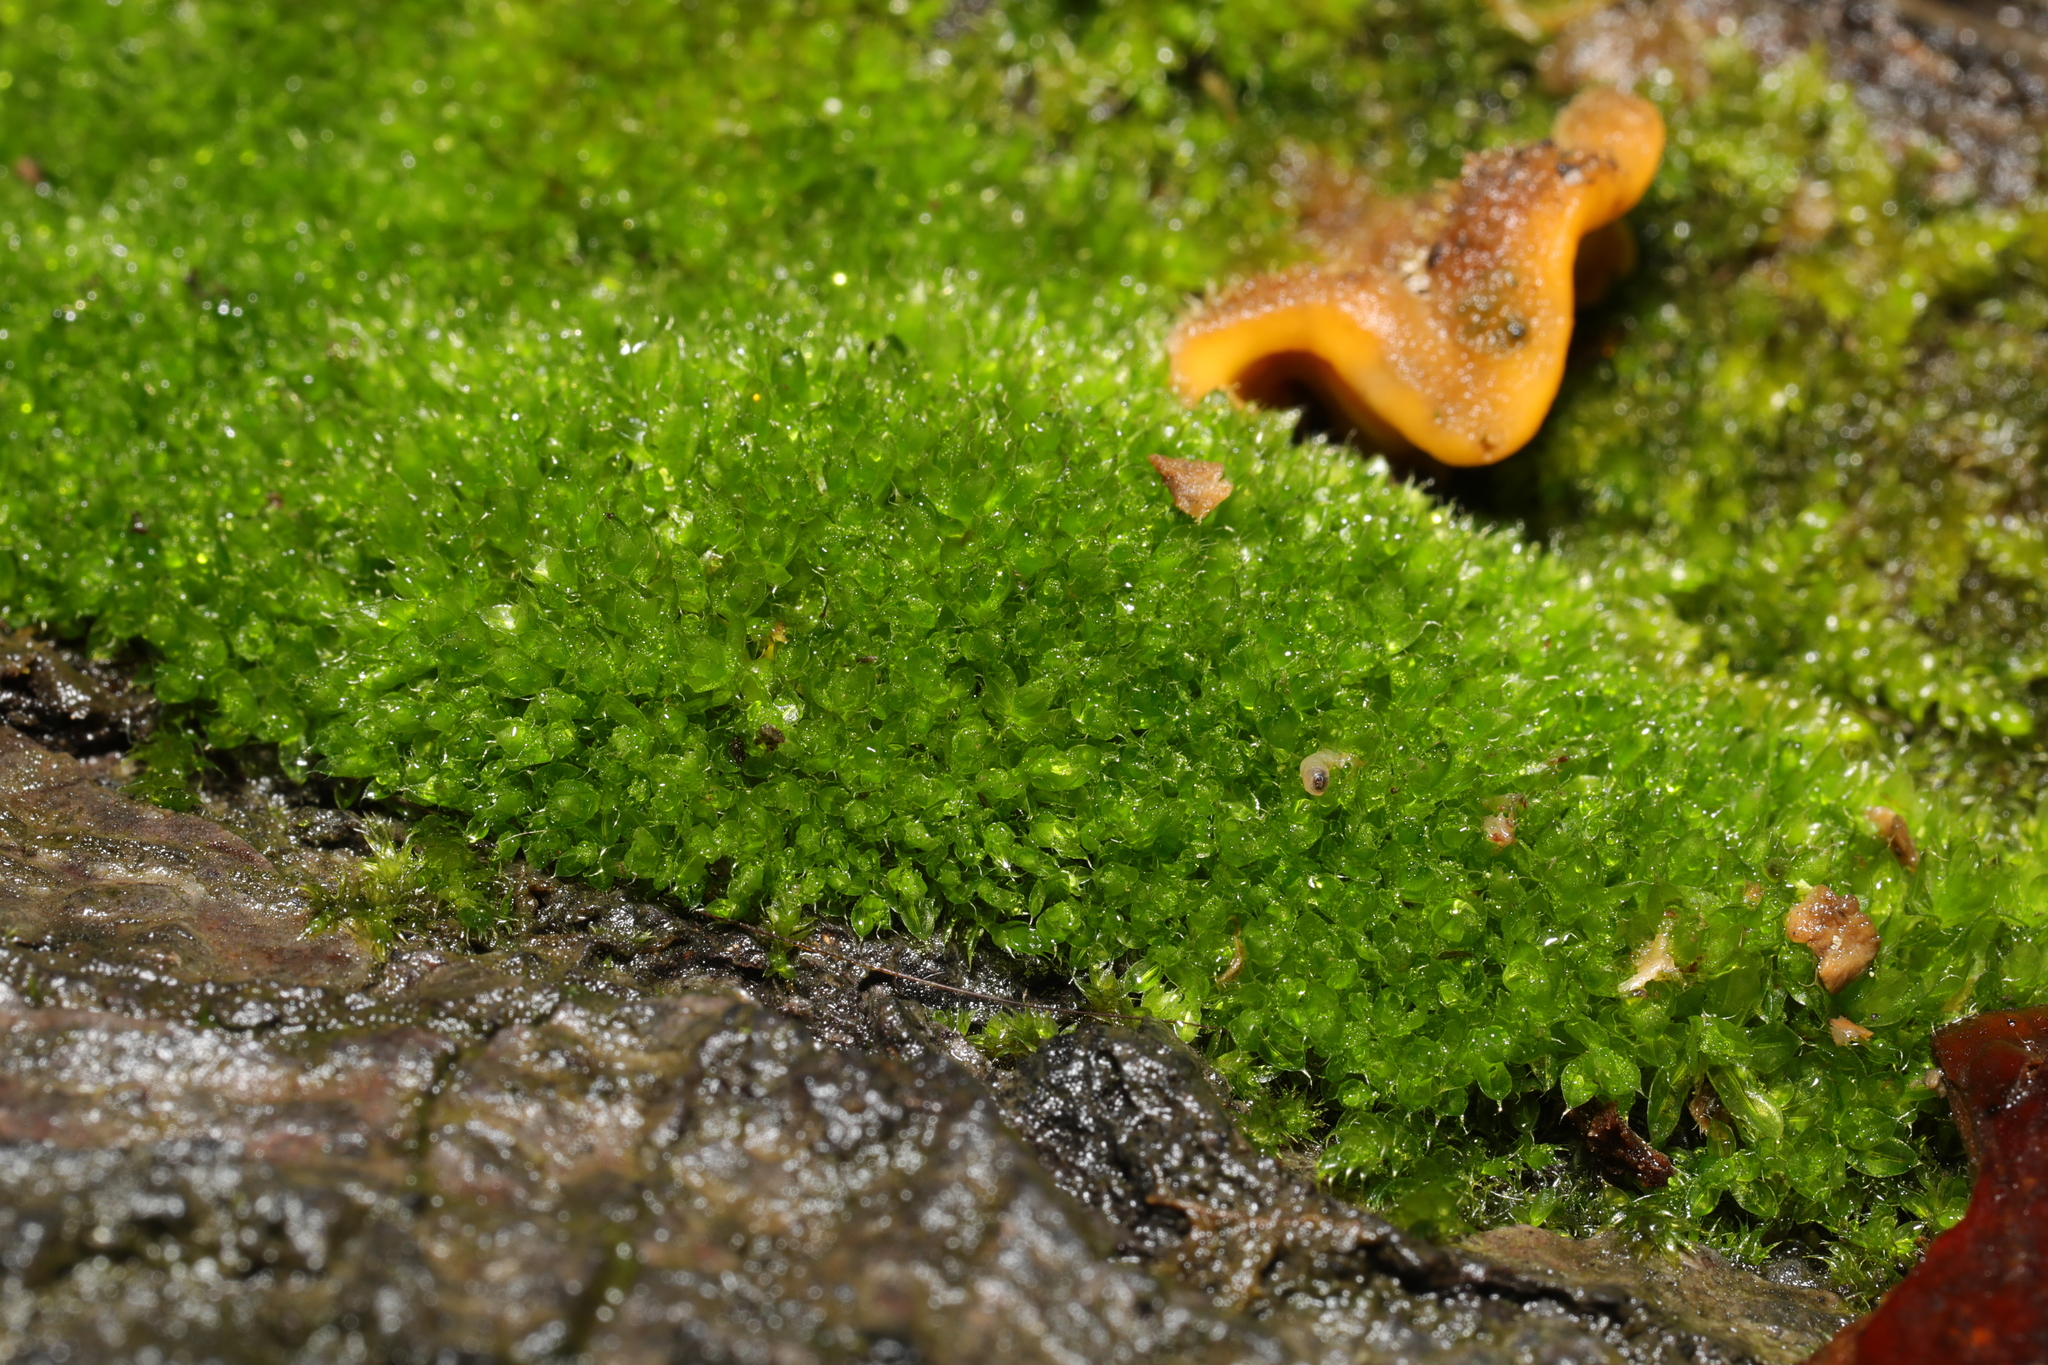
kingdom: Plantae
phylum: Bryophyta
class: Bryopsida
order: Bryales
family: Bryaceae
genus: Rosulabryum
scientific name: Rosulabryum capillare
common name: Capillary thread-moss
